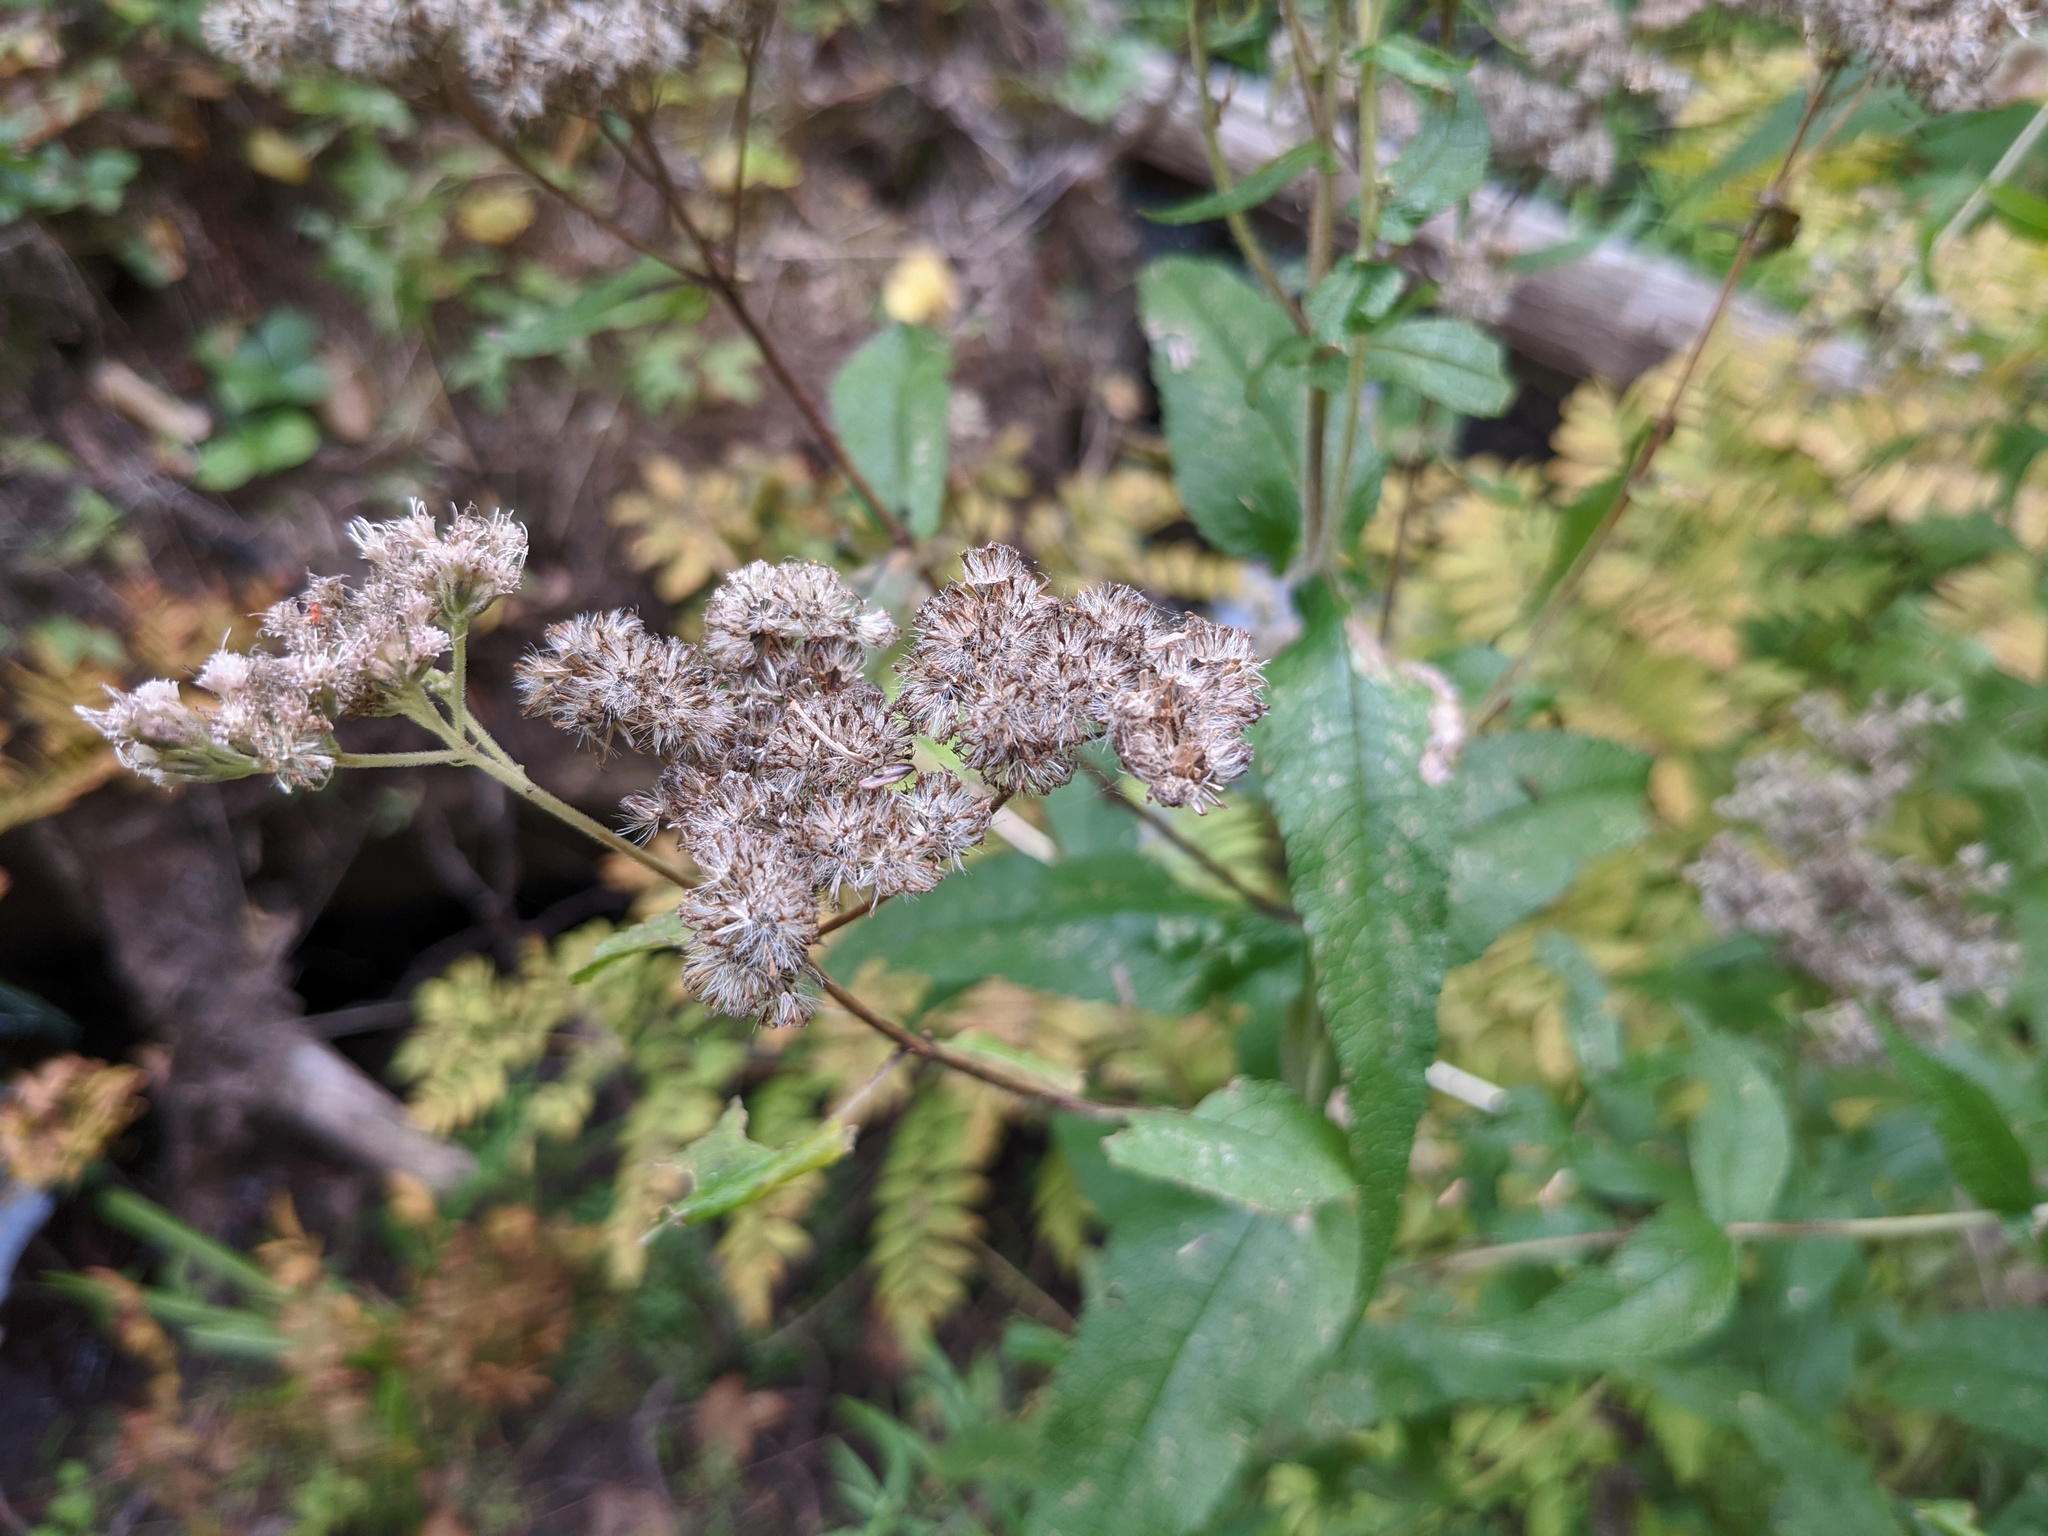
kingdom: Plantae
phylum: Tracheophyta
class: Magnoliopsida
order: Asterales
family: Asteraceae
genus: Eupatorium
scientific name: Eupatorium perfoliatum
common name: Boneset
